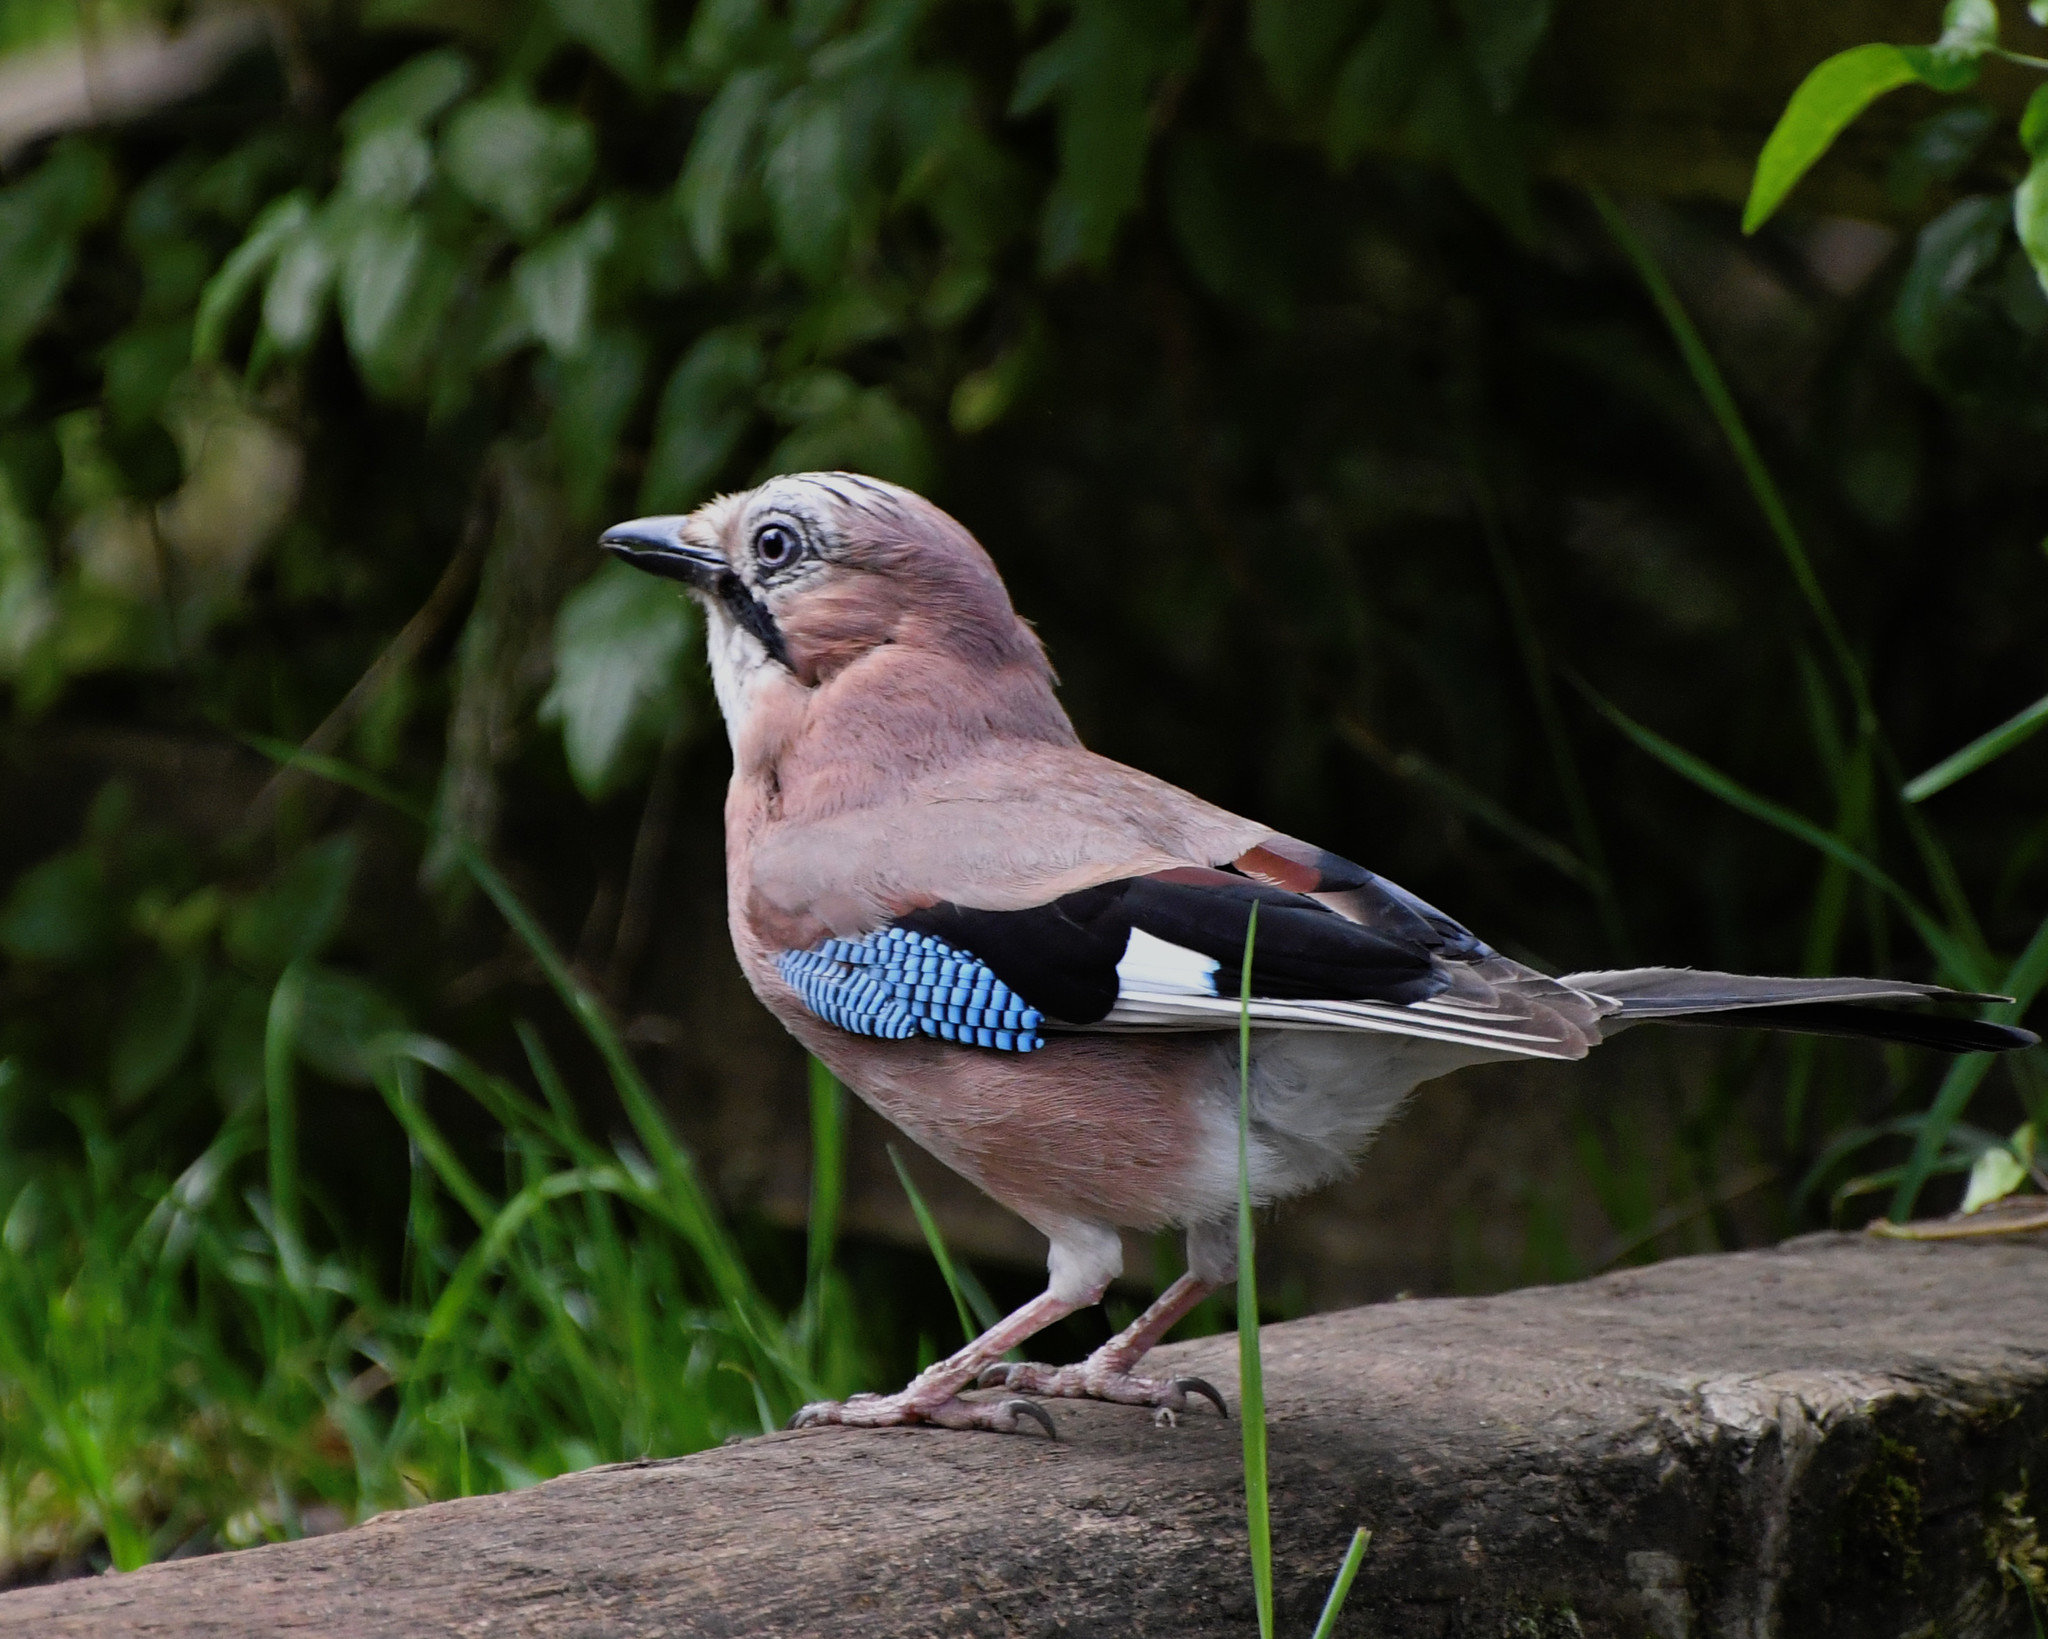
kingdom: Animalia
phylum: Chordata
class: Aves
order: Passeriformes
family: Corvidae
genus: Garrulus
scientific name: Garrulus glandarius
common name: Eurasian jay
